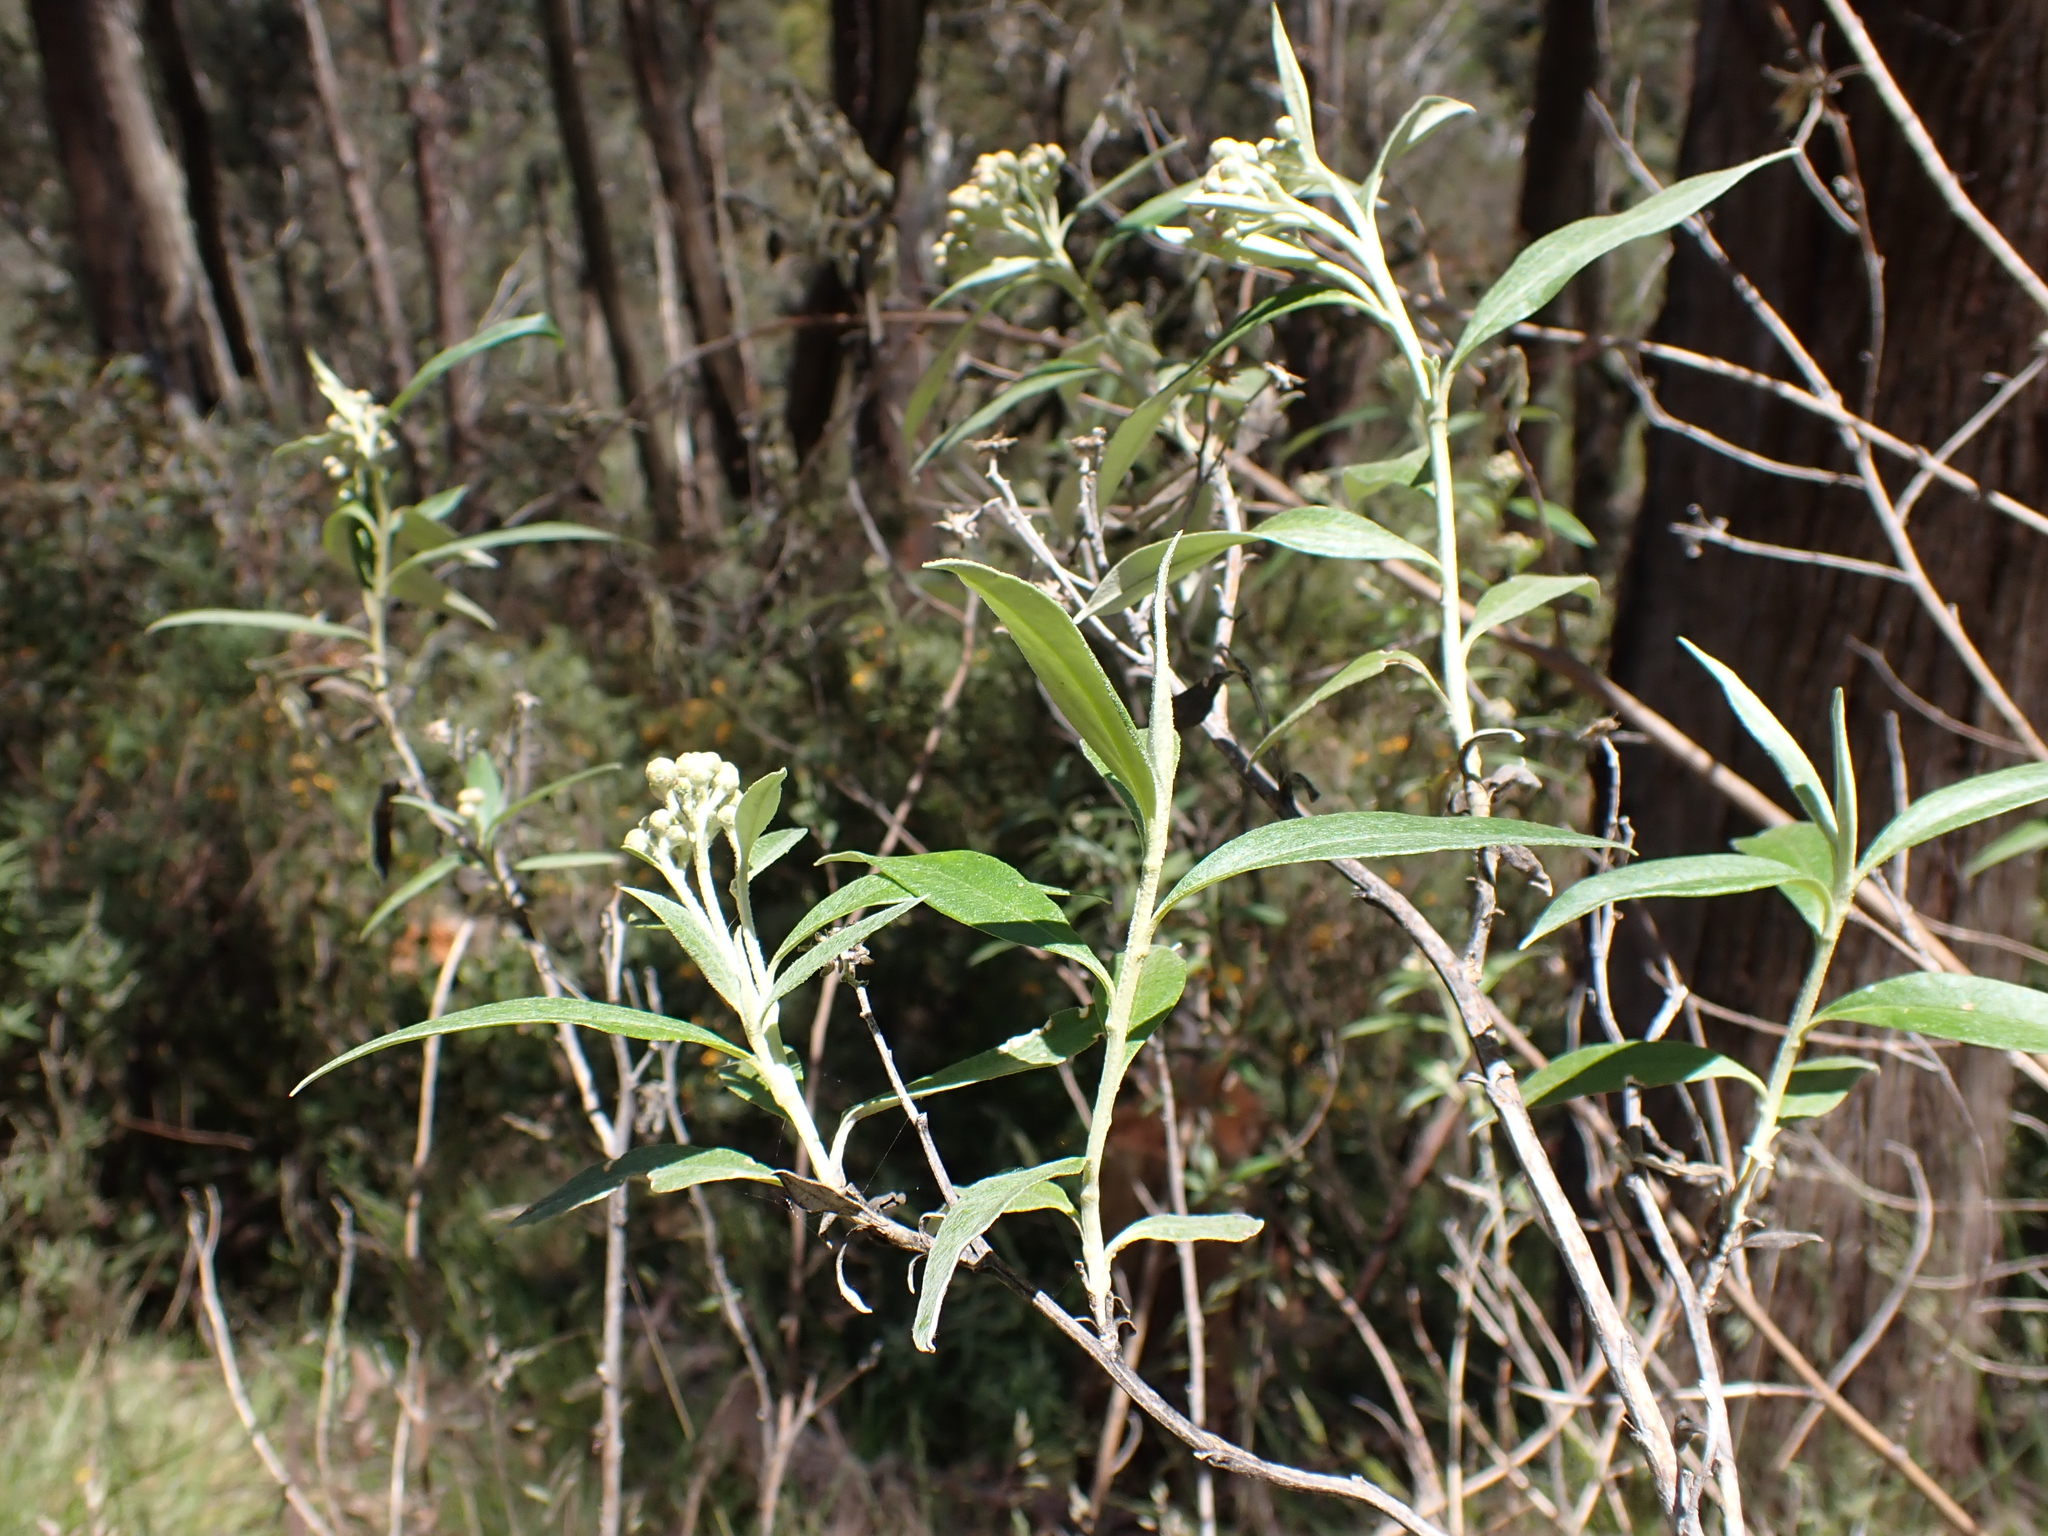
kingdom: Plantae
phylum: Tracheophyta
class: Magnoliopsida
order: Asterales
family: Asteraceae
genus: Ozothamnus
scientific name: Ozothamnus stirlingii
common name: Ovens everlasting
